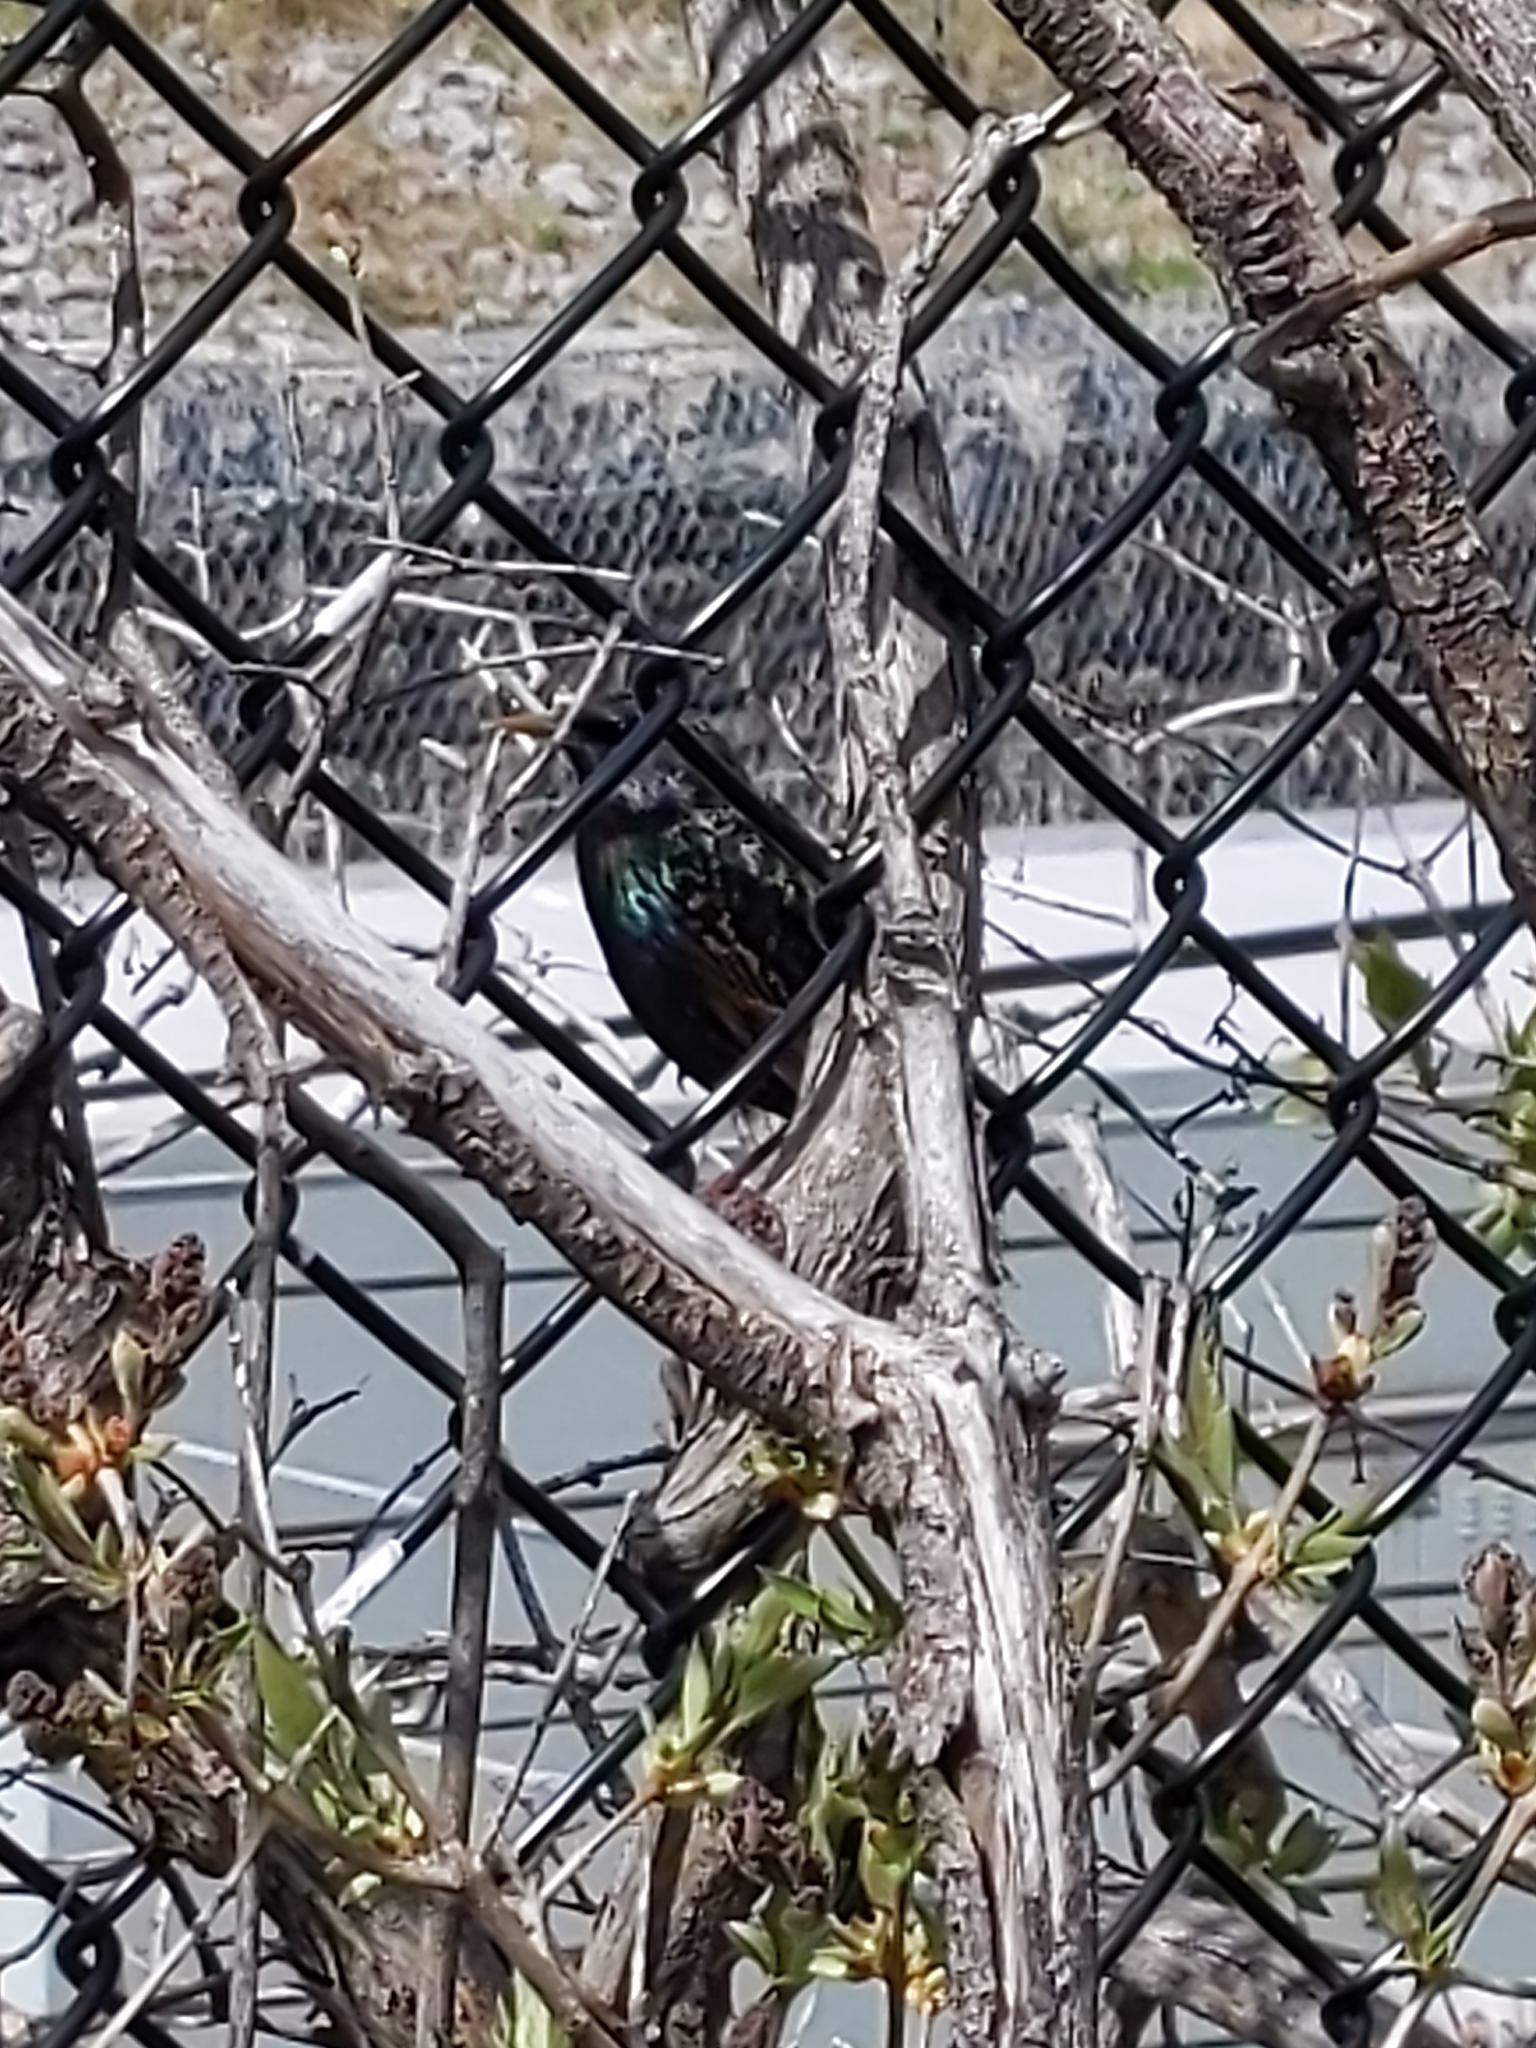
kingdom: Animalia
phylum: Chordata
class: Aves
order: Passeriformes
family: Sturnidae
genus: Sturnus
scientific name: Sturnus vulgaris
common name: Common starling
